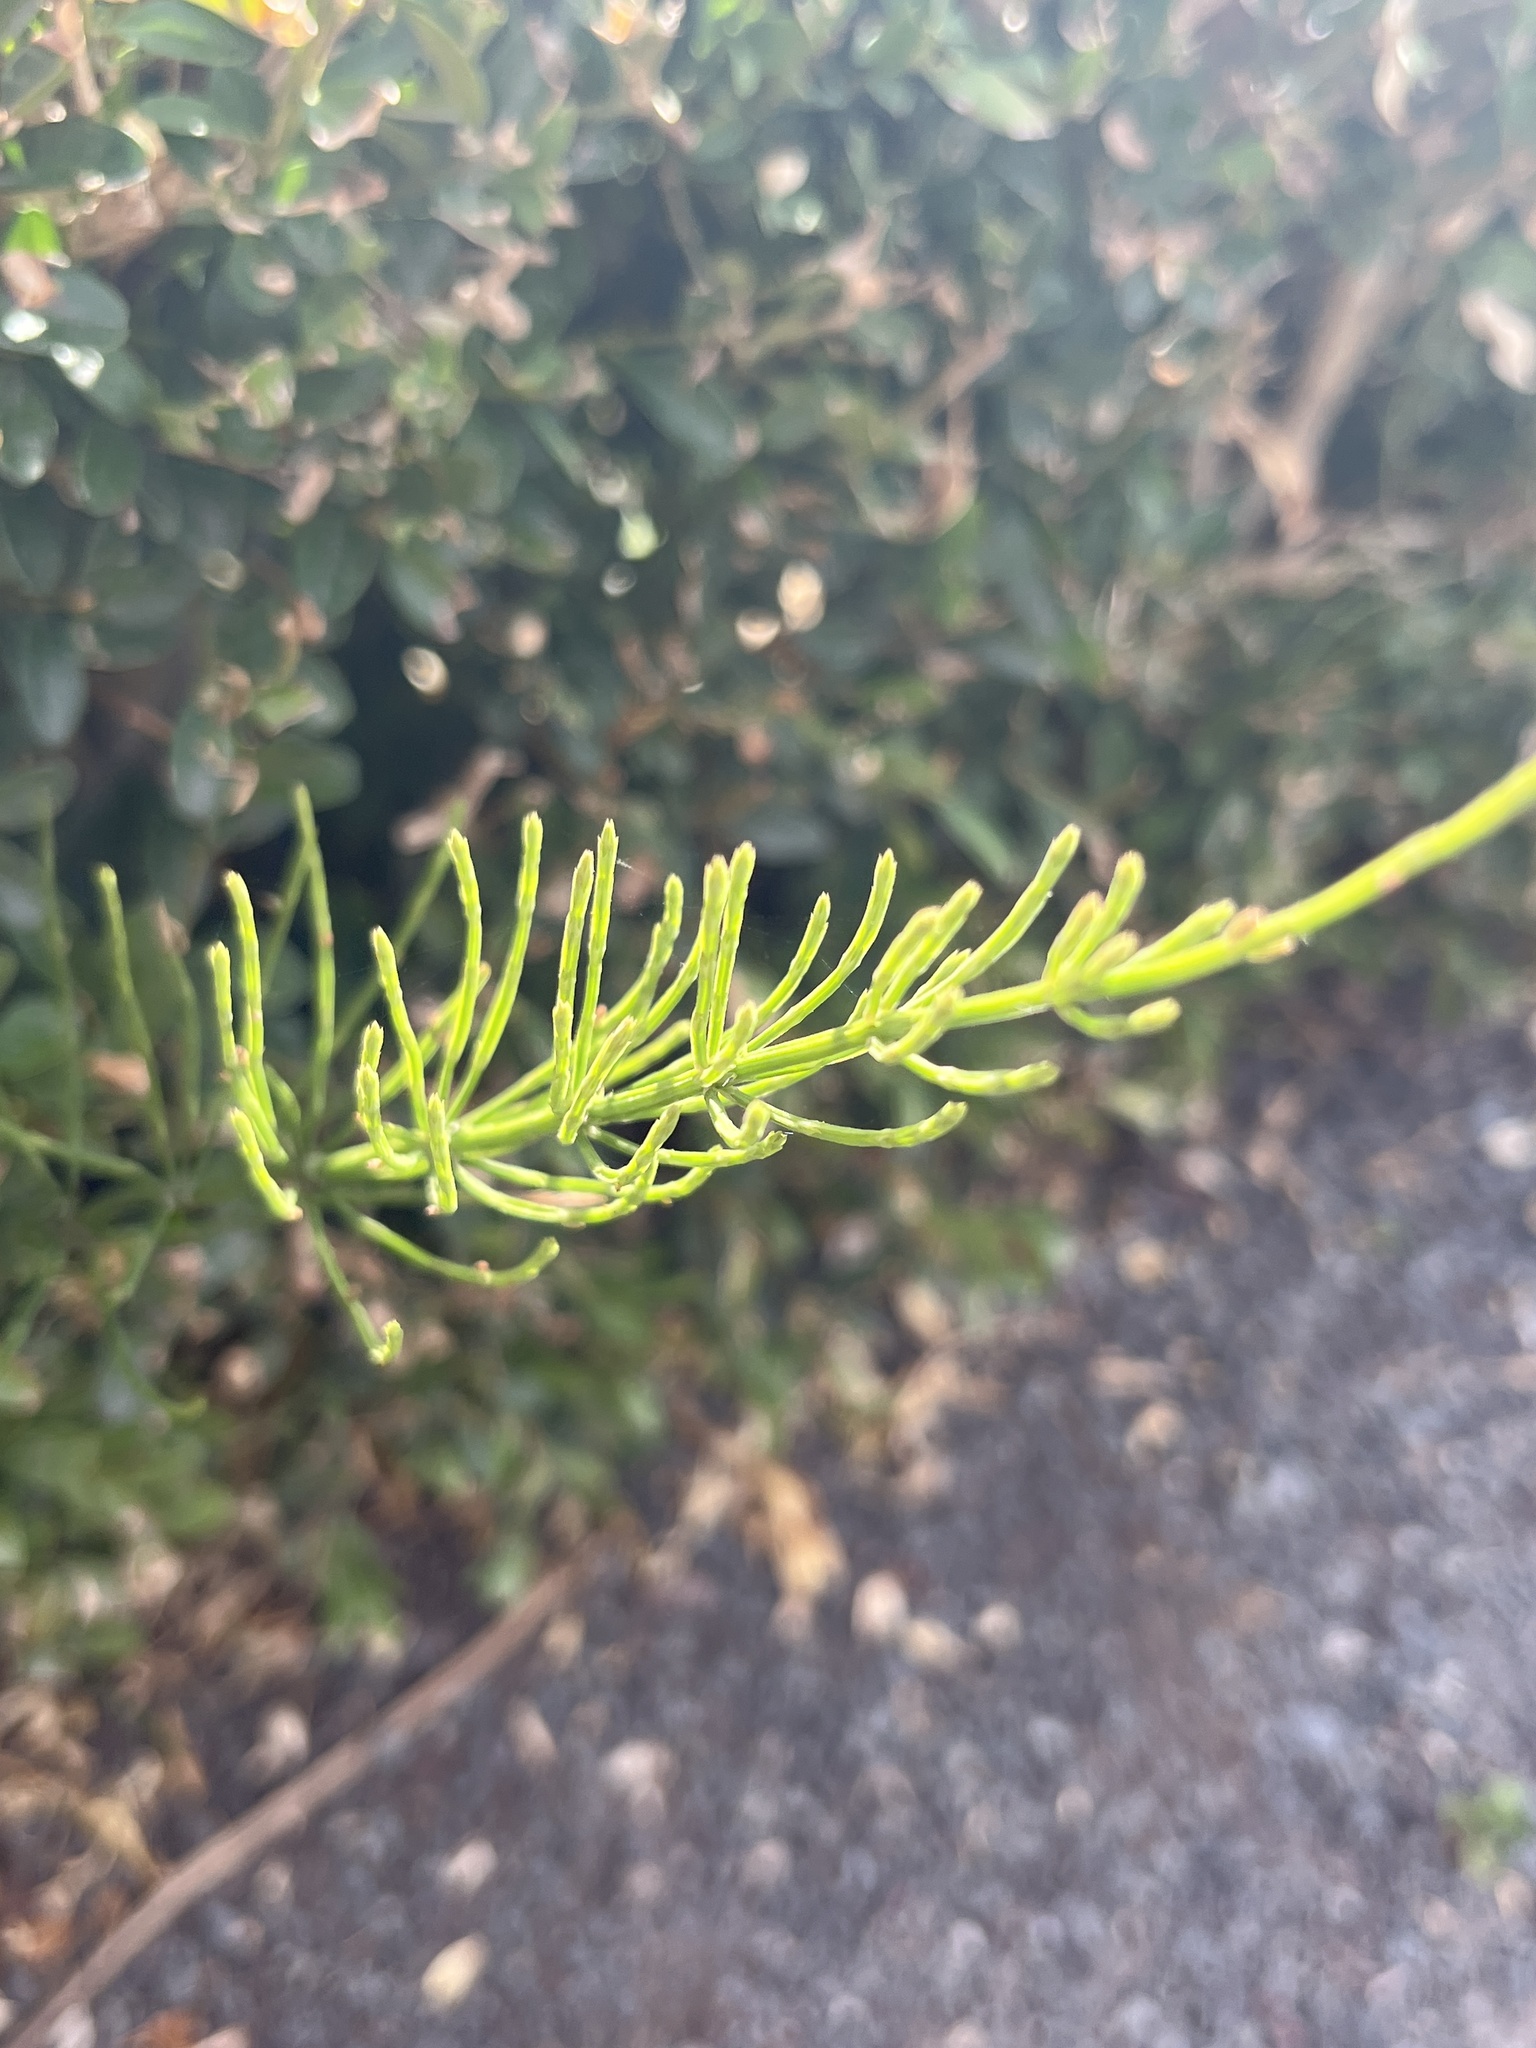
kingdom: Plantae
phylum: Tracheophyta
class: Polypodiopsida
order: Equisetales
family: Equisetaceae
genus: Equisetum
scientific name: Equisetum arvense
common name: Field horsetail
